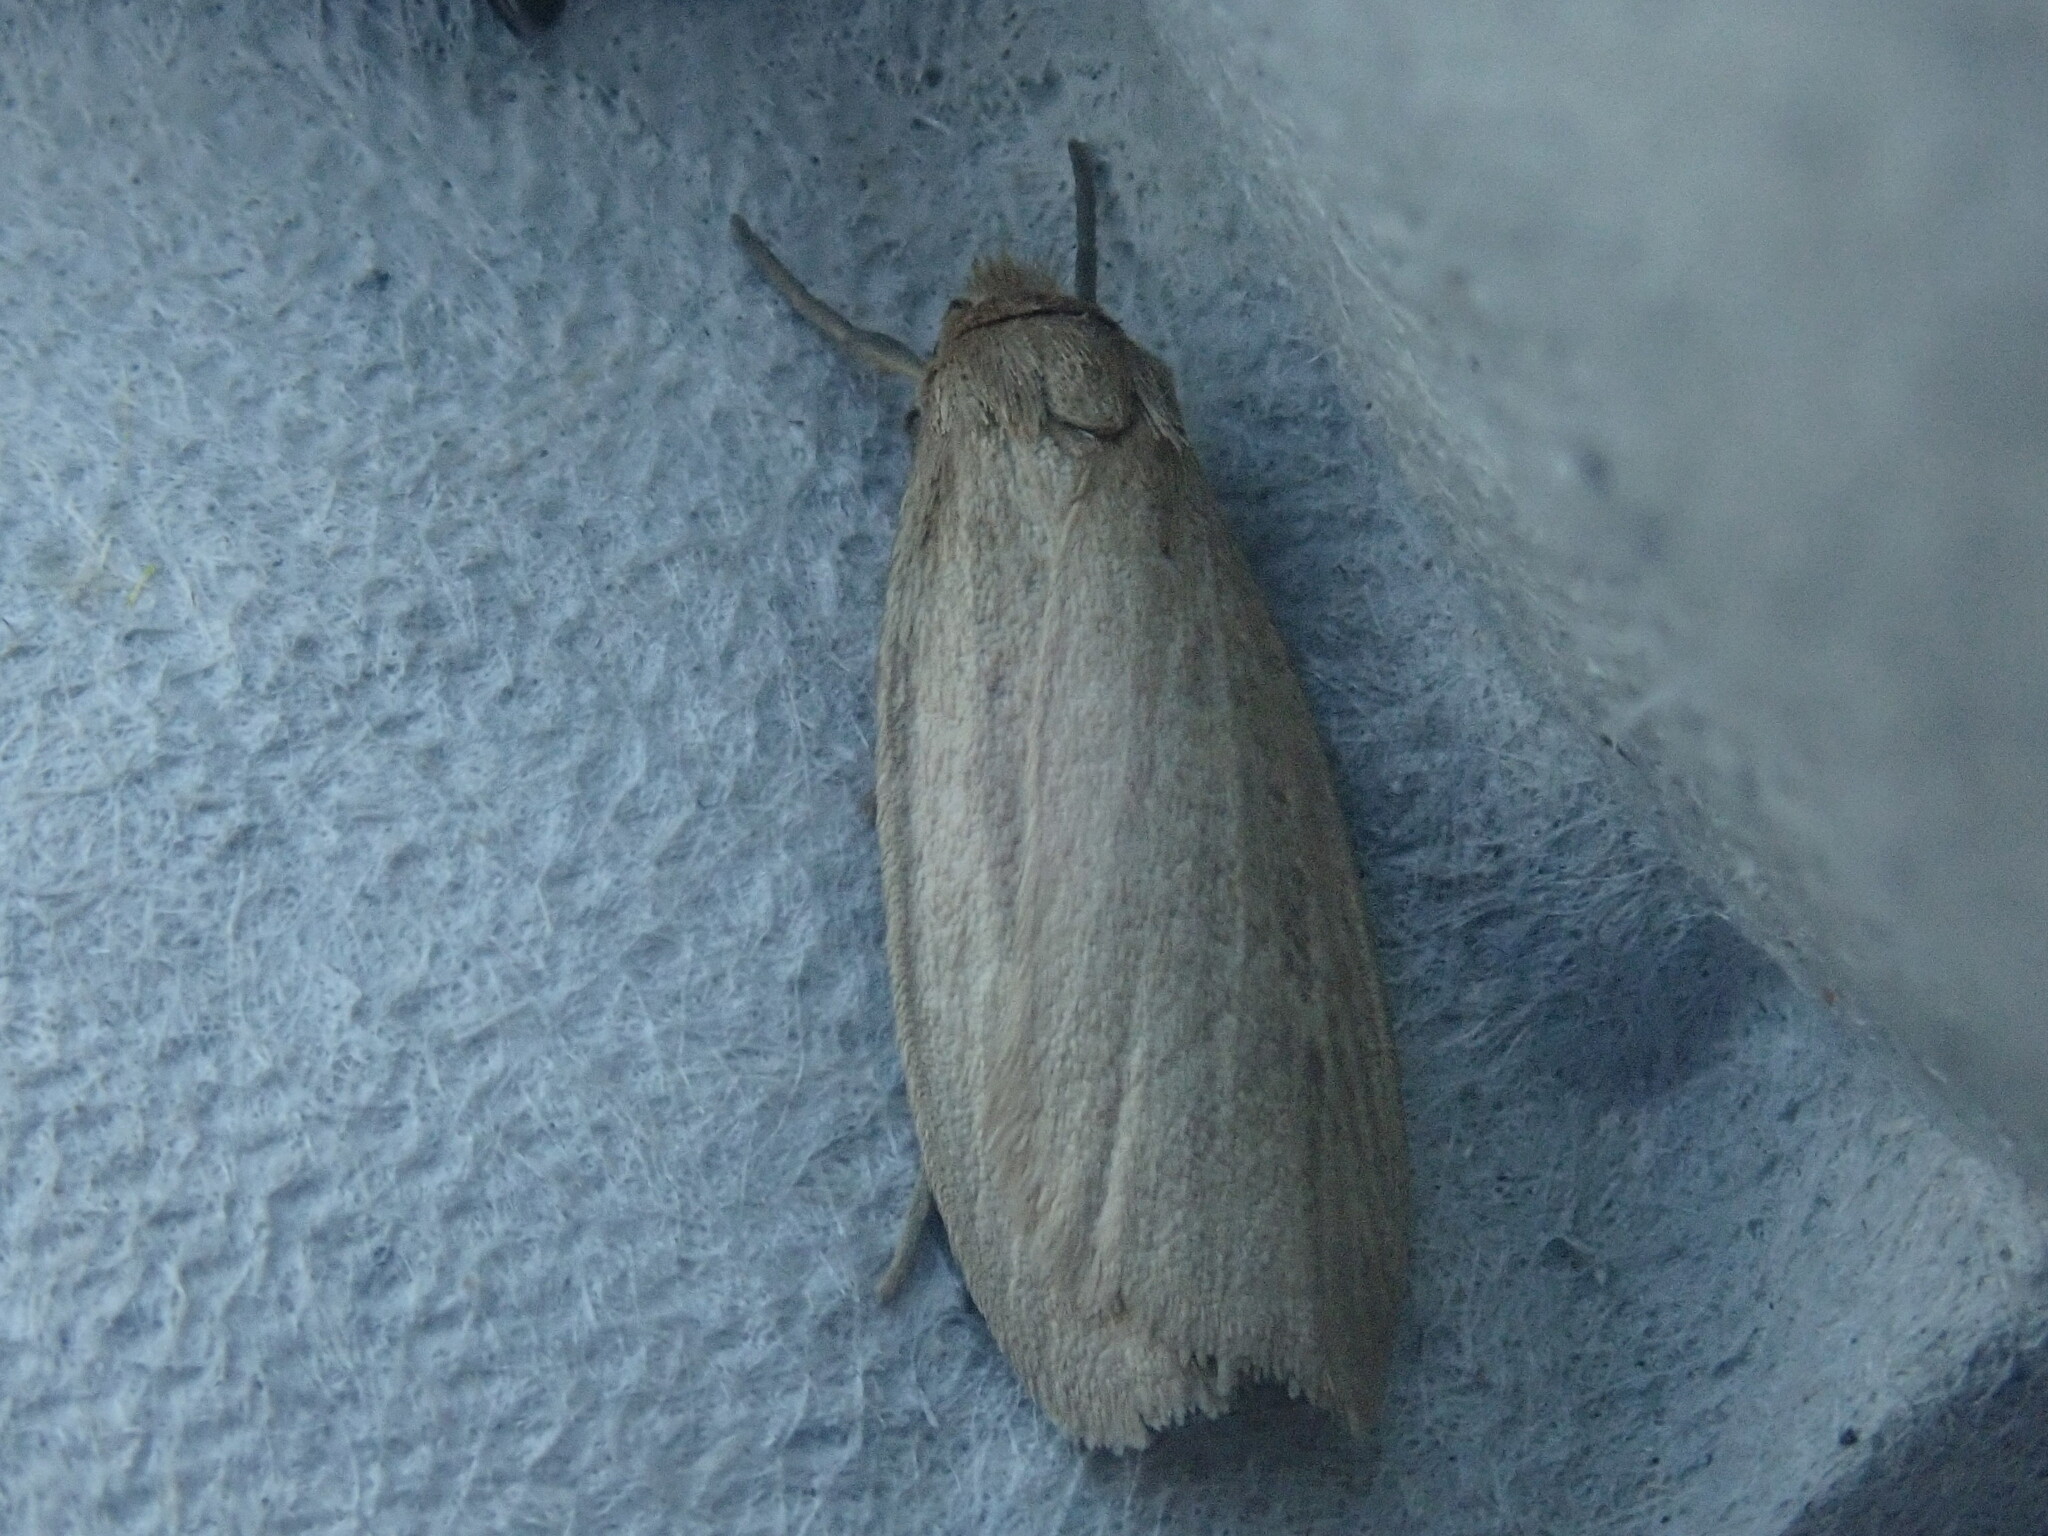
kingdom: Animalia
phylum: Arthropoda
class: Insecta
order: Lepidoptera
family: Erebidae
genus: Crambidia
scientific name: Crambidia pallida
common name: Pale lichen moth
